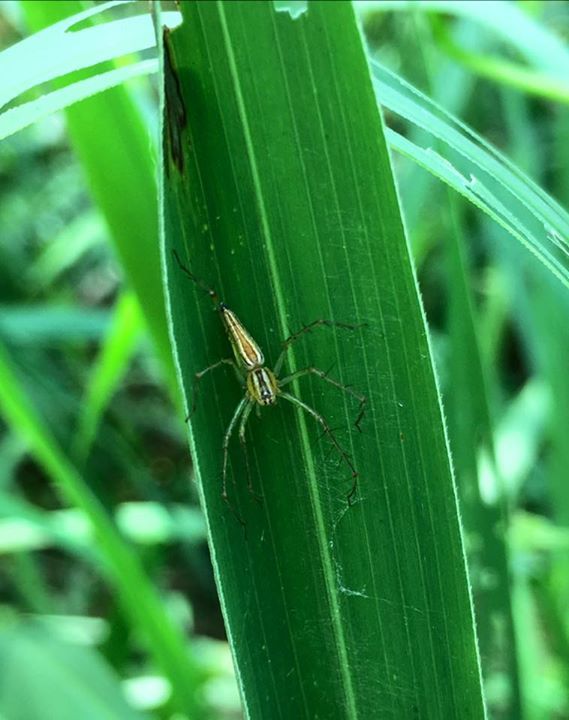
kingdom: Animalia
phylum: Arthropoda
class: Arachnida
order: Araneae
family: Oxyopidae
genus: Oxyopes
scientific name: Oxyopes macilentus
